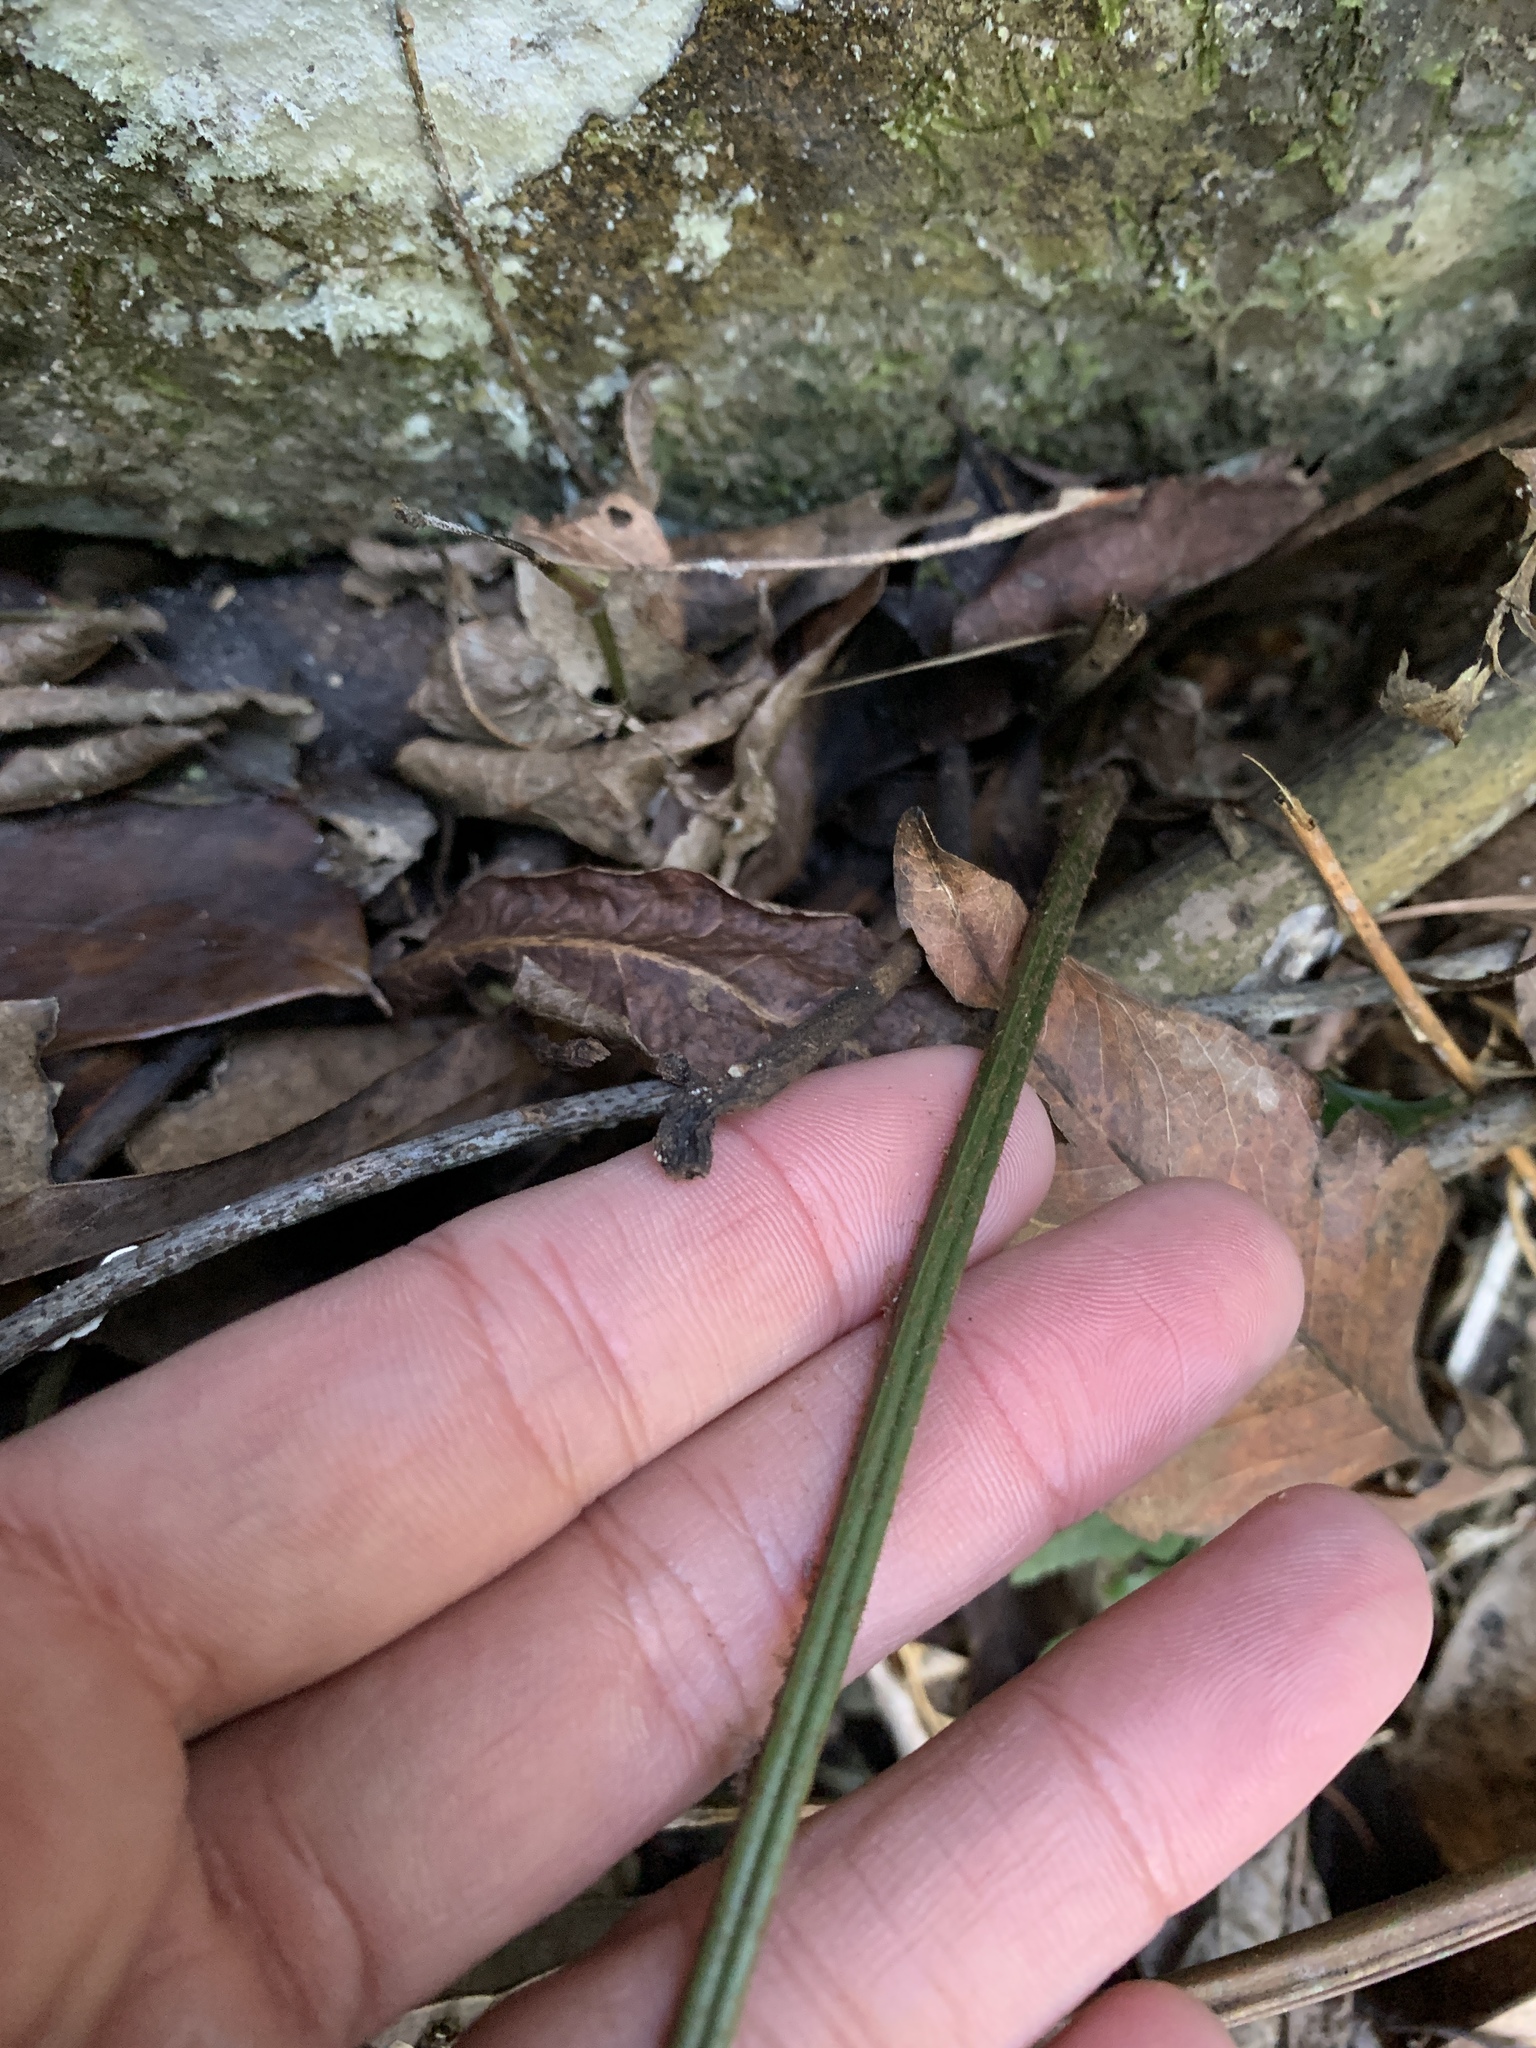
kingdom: Plantae
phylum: Tracheophyta
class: Polypodiopsida
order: Polypodiales
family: Dryopteridaceae
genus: Arachniodes
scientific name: Arachniodes rhomboidea
